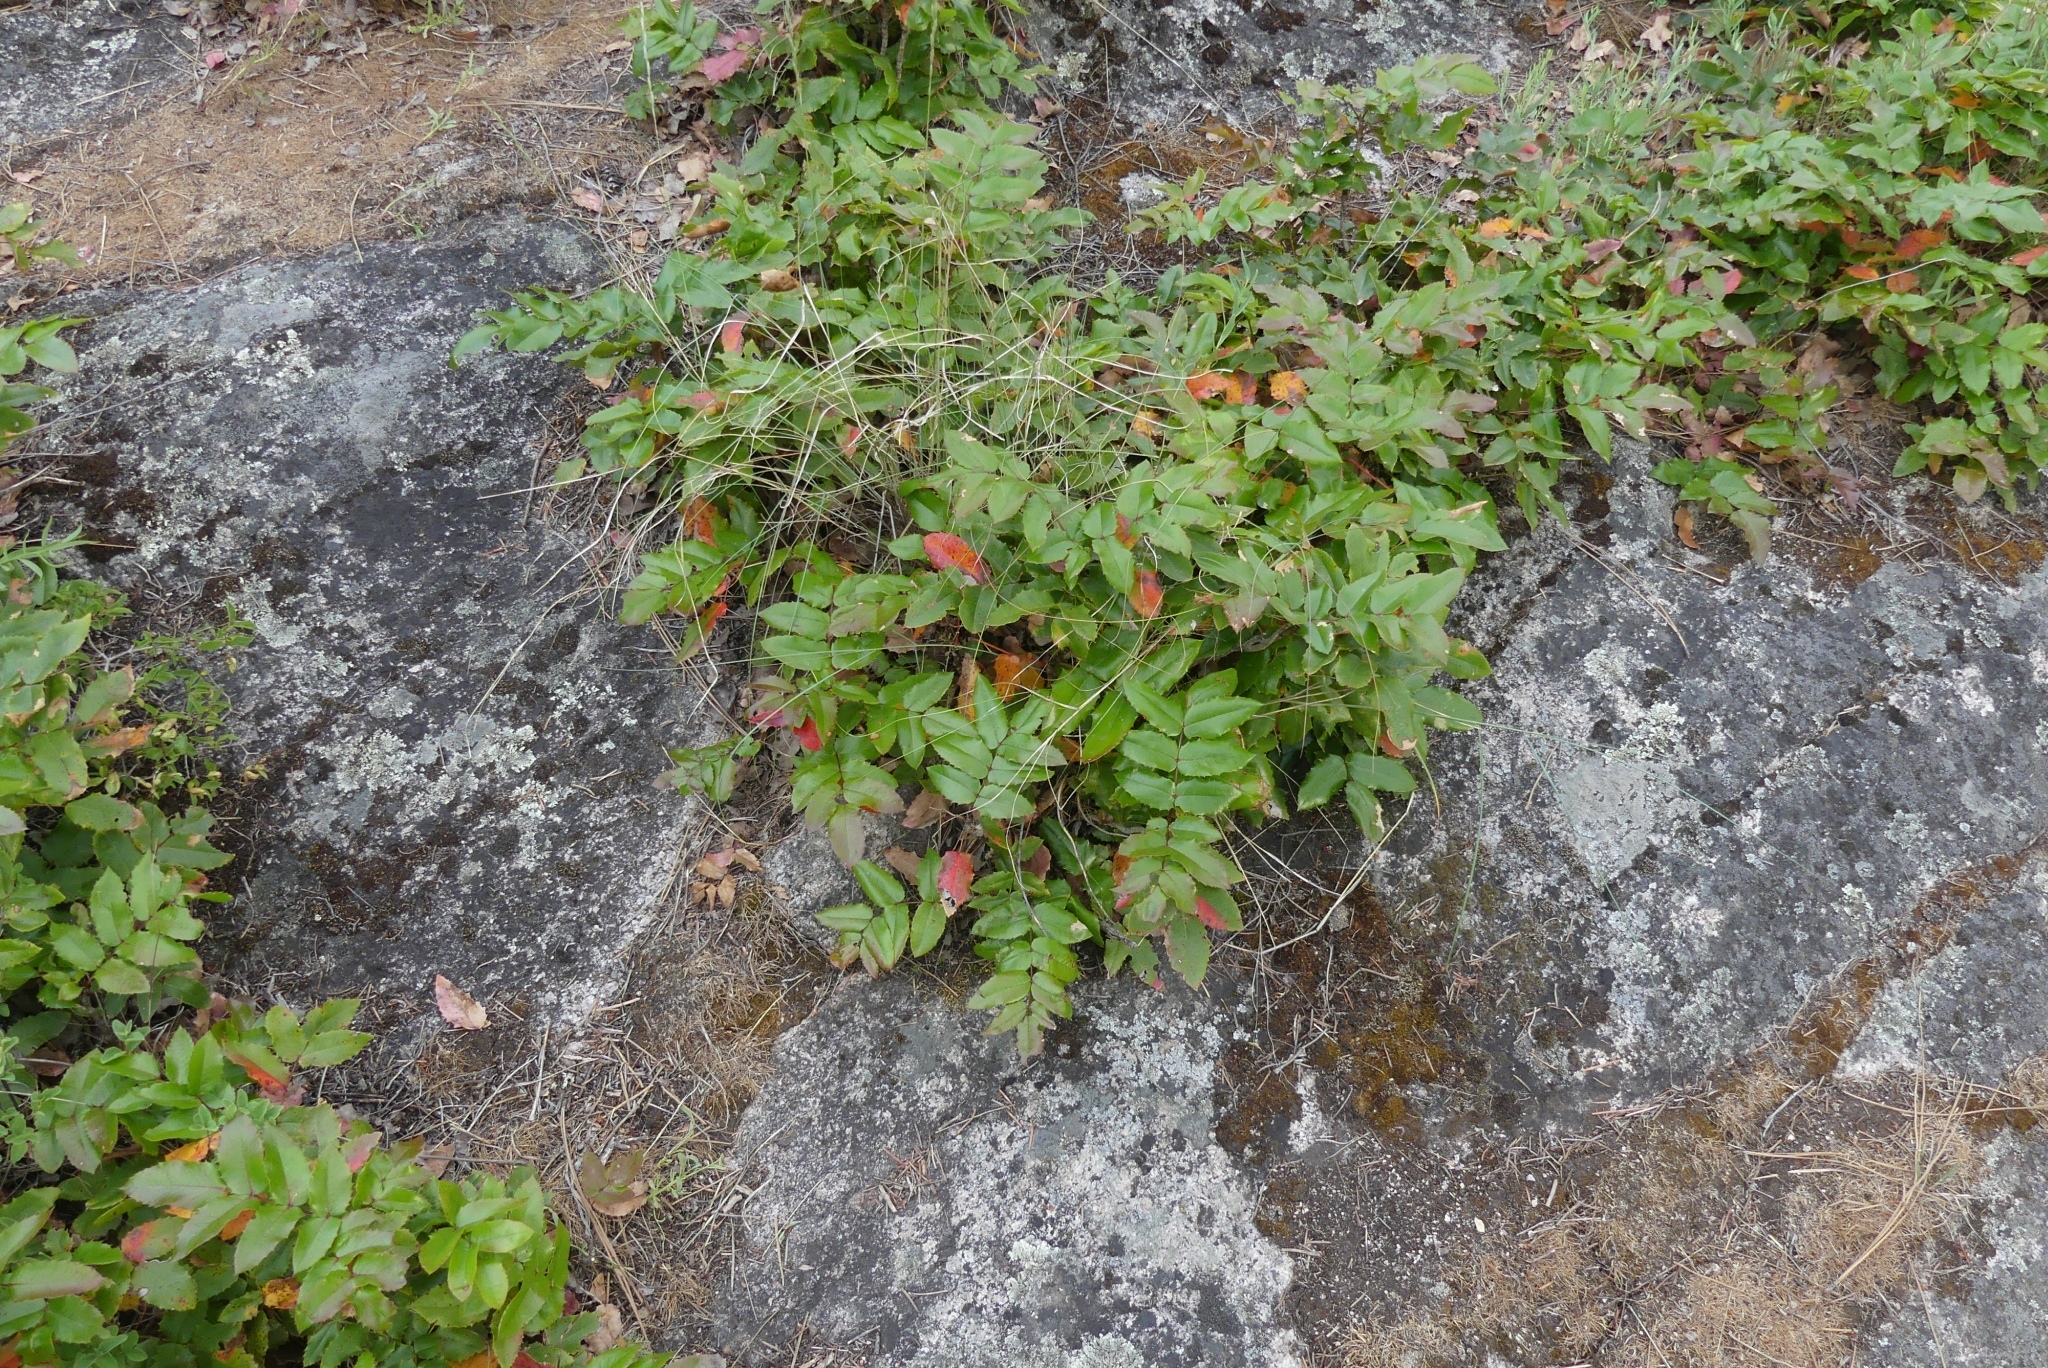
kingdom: Plantae
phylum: Tracheophyta
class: Magnoliopsida
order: Ranunculales
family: Berberidaceae
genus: Mahonia
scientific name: Mahonia aquifolium
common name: Oregon-grape
